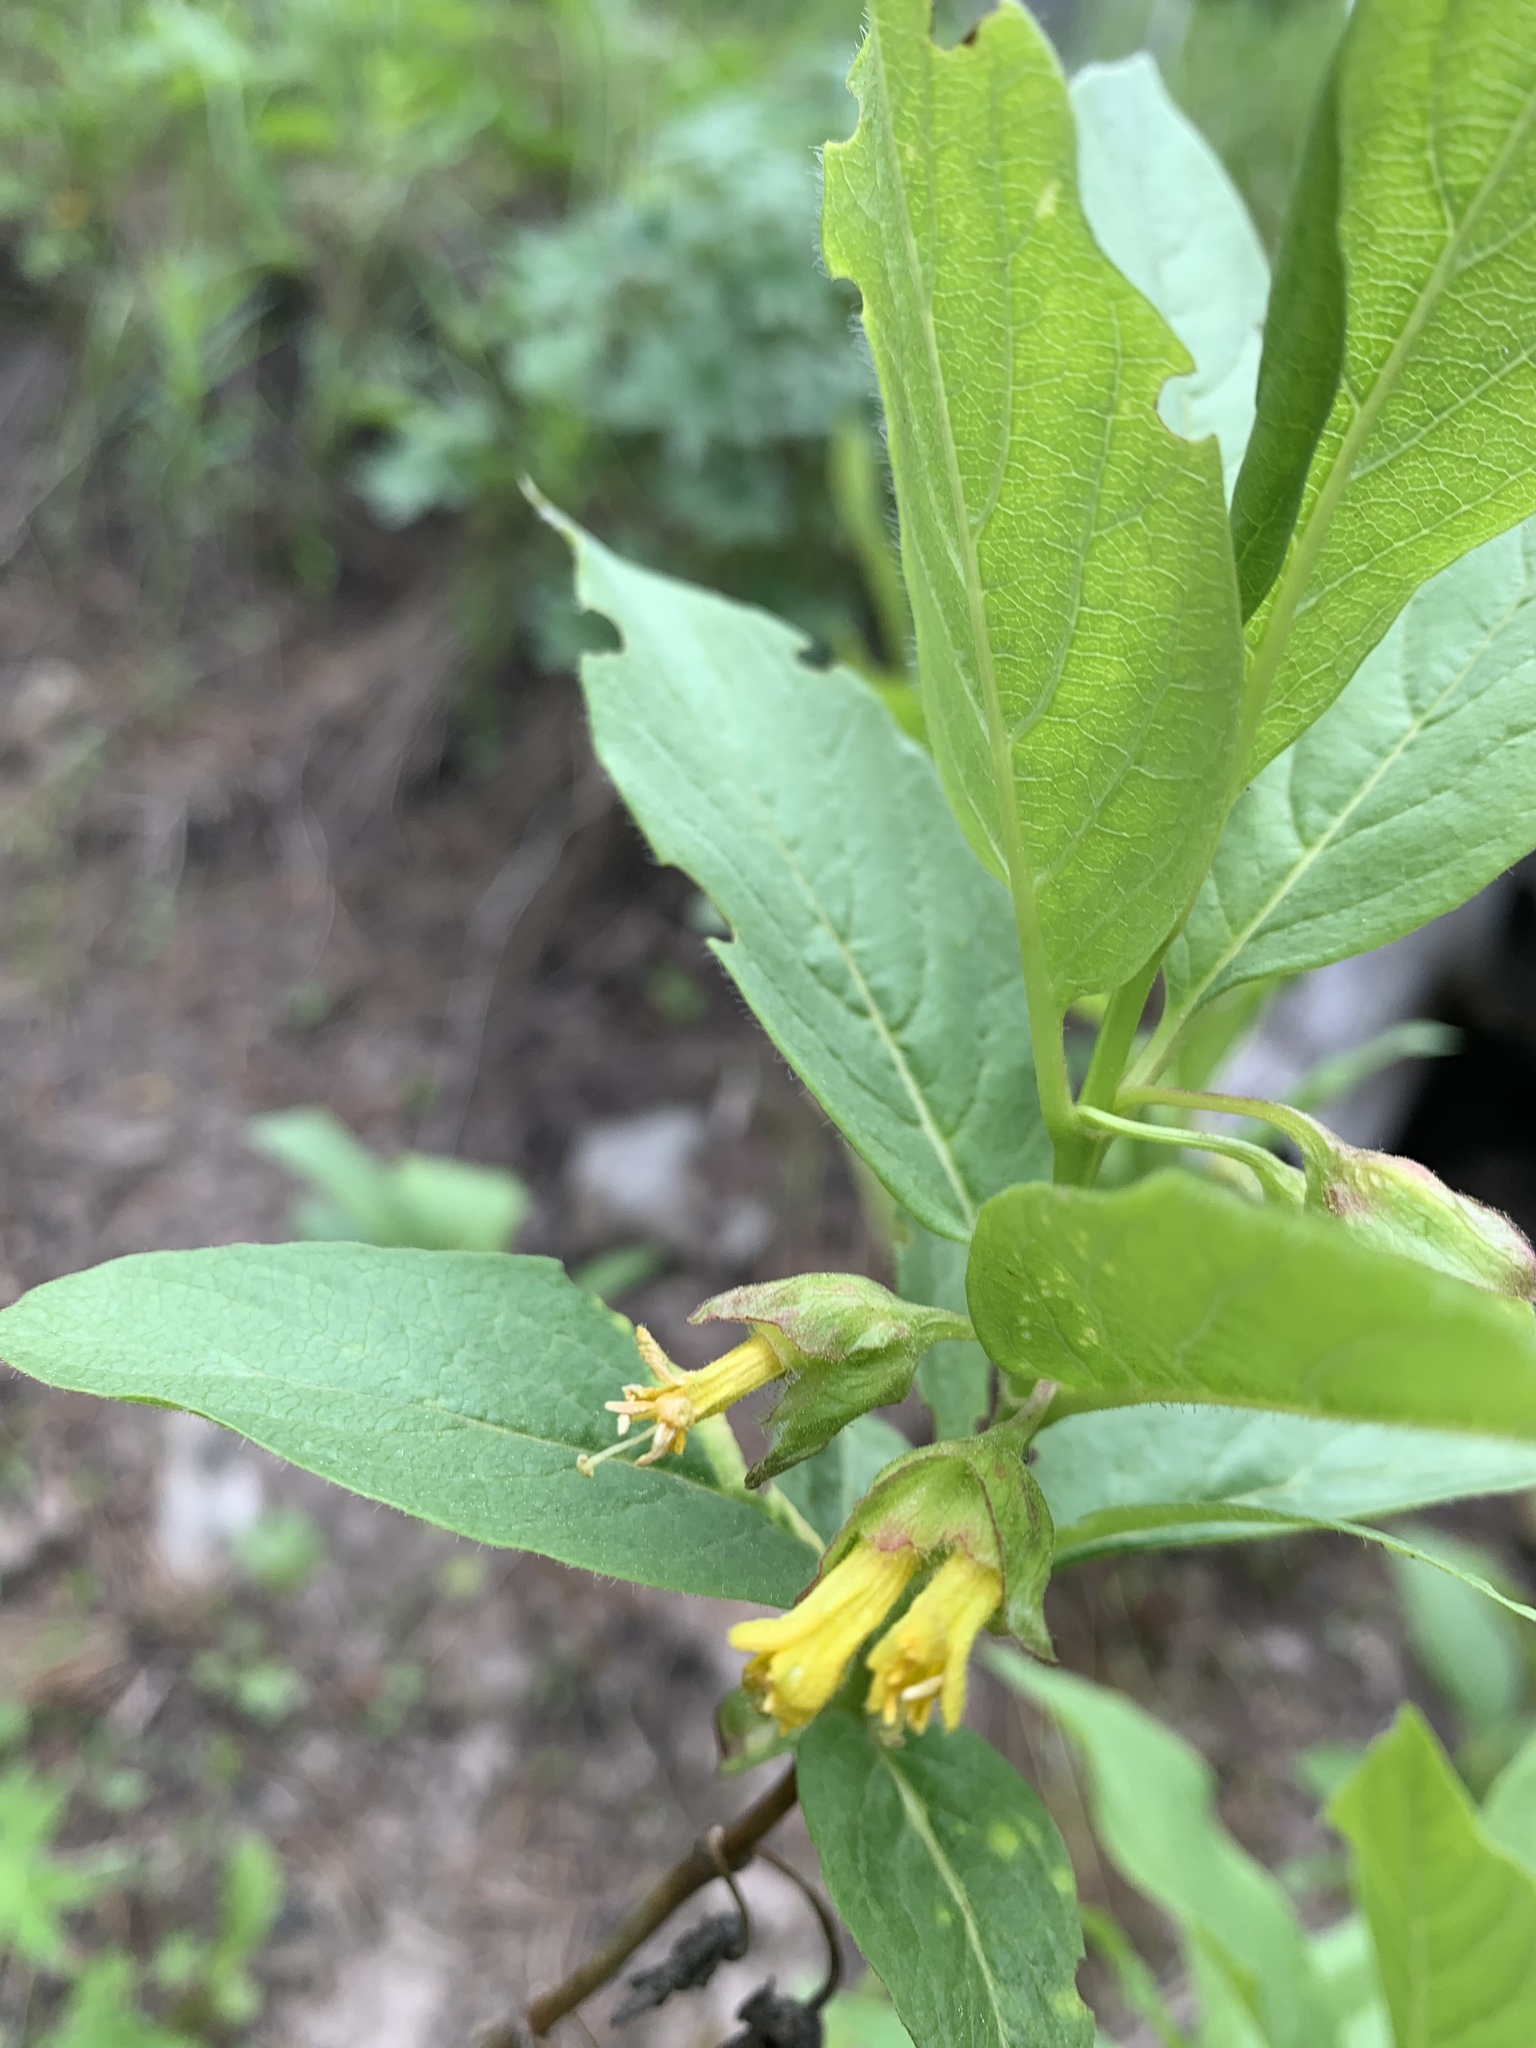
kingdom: Plantae
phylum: Tracheophyta
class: Magnoliopsida
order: Dipsacales
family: Caprifoliaceae
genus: Lonicera
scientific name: Lonicera involucrata
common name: Californian honeysuckle
